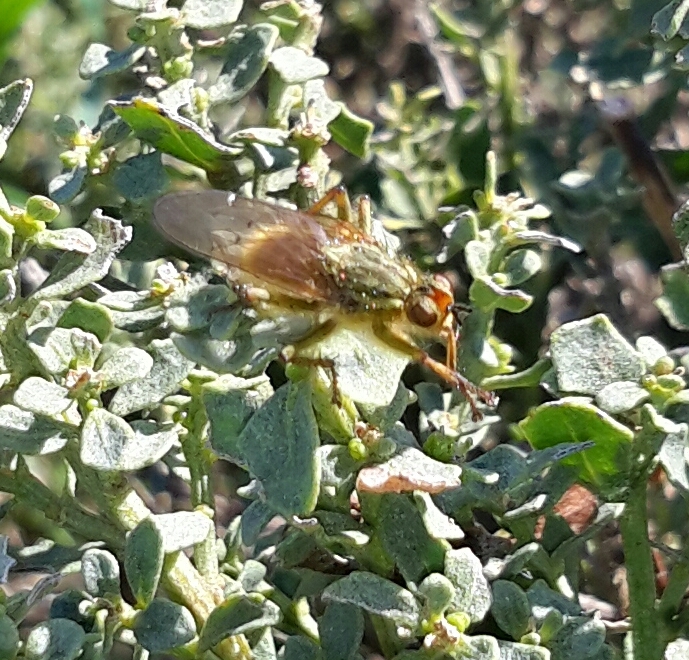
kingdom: Animalia
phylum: Arthropoda
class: Insecta
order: Diptera
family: Scathophagidae
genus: Scathophaga
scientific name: Scathophaga stercoraria
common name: Yellow dung fly
